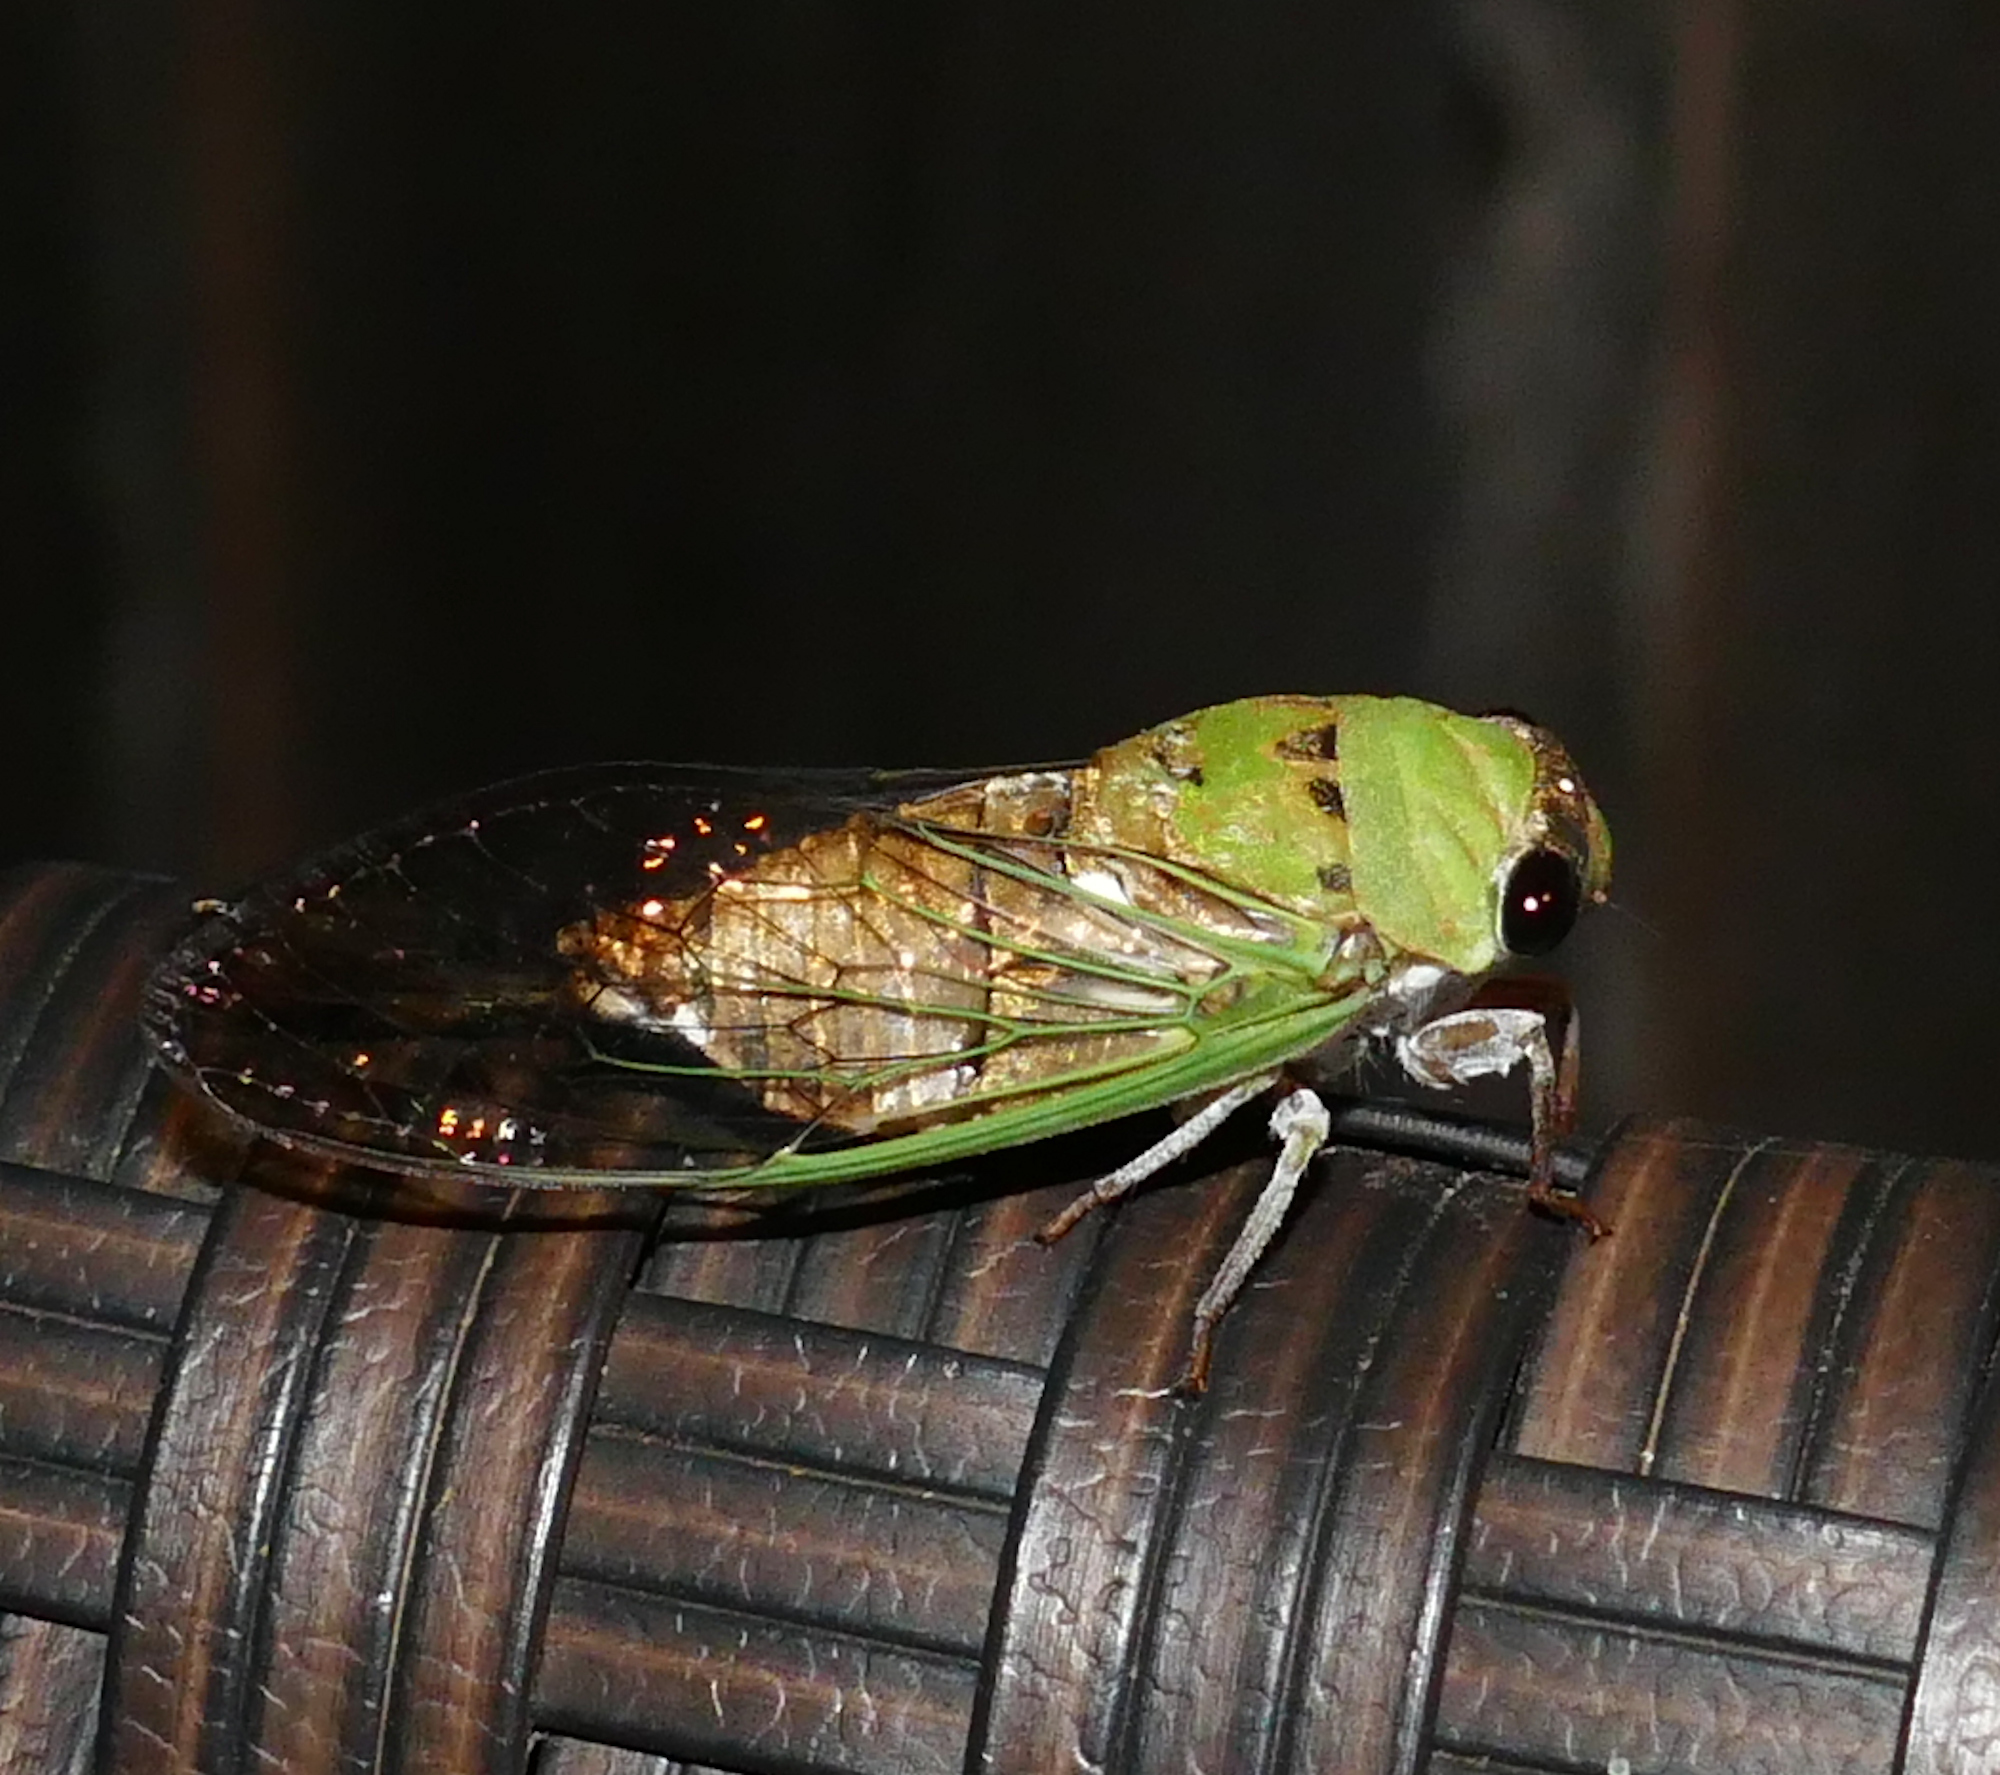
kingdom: Animalia
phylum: Arthropoda
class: Insecta
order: Hemiptera
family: Cicadidae
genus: Neotibicen
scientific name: Neotibicen superbus
